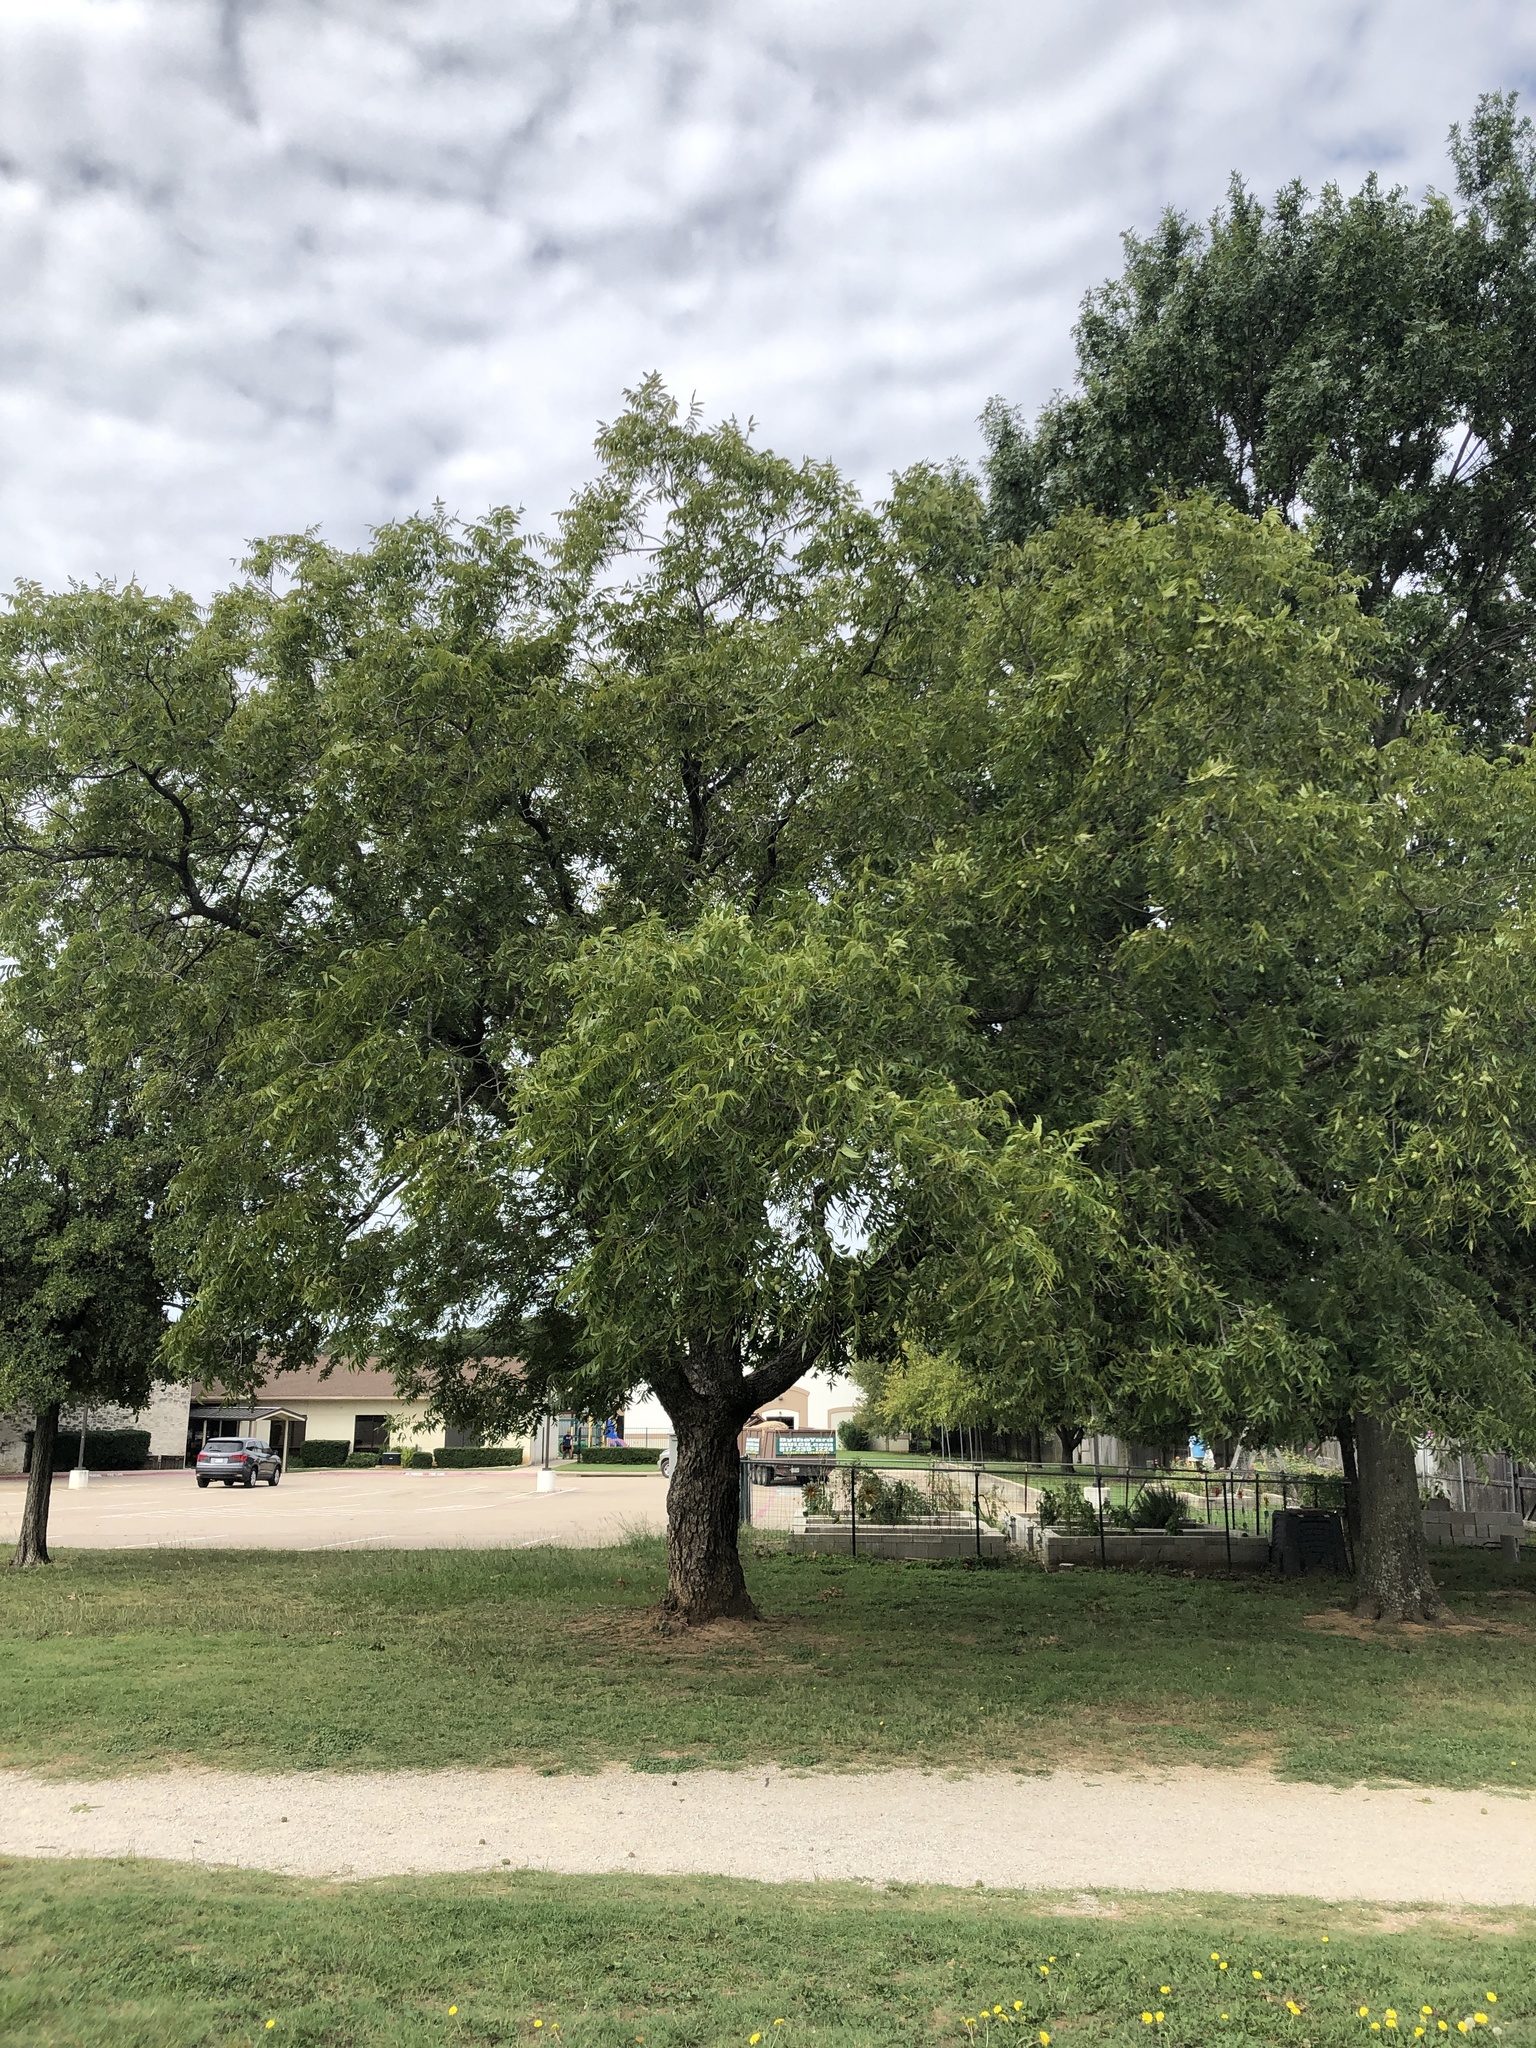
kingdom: Plantae
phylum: Tracheophyta
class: Magnoliopsida
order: Fagales
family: Juglandaceae
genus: Carya
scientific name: Carya illinoinensis
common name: Pecan
